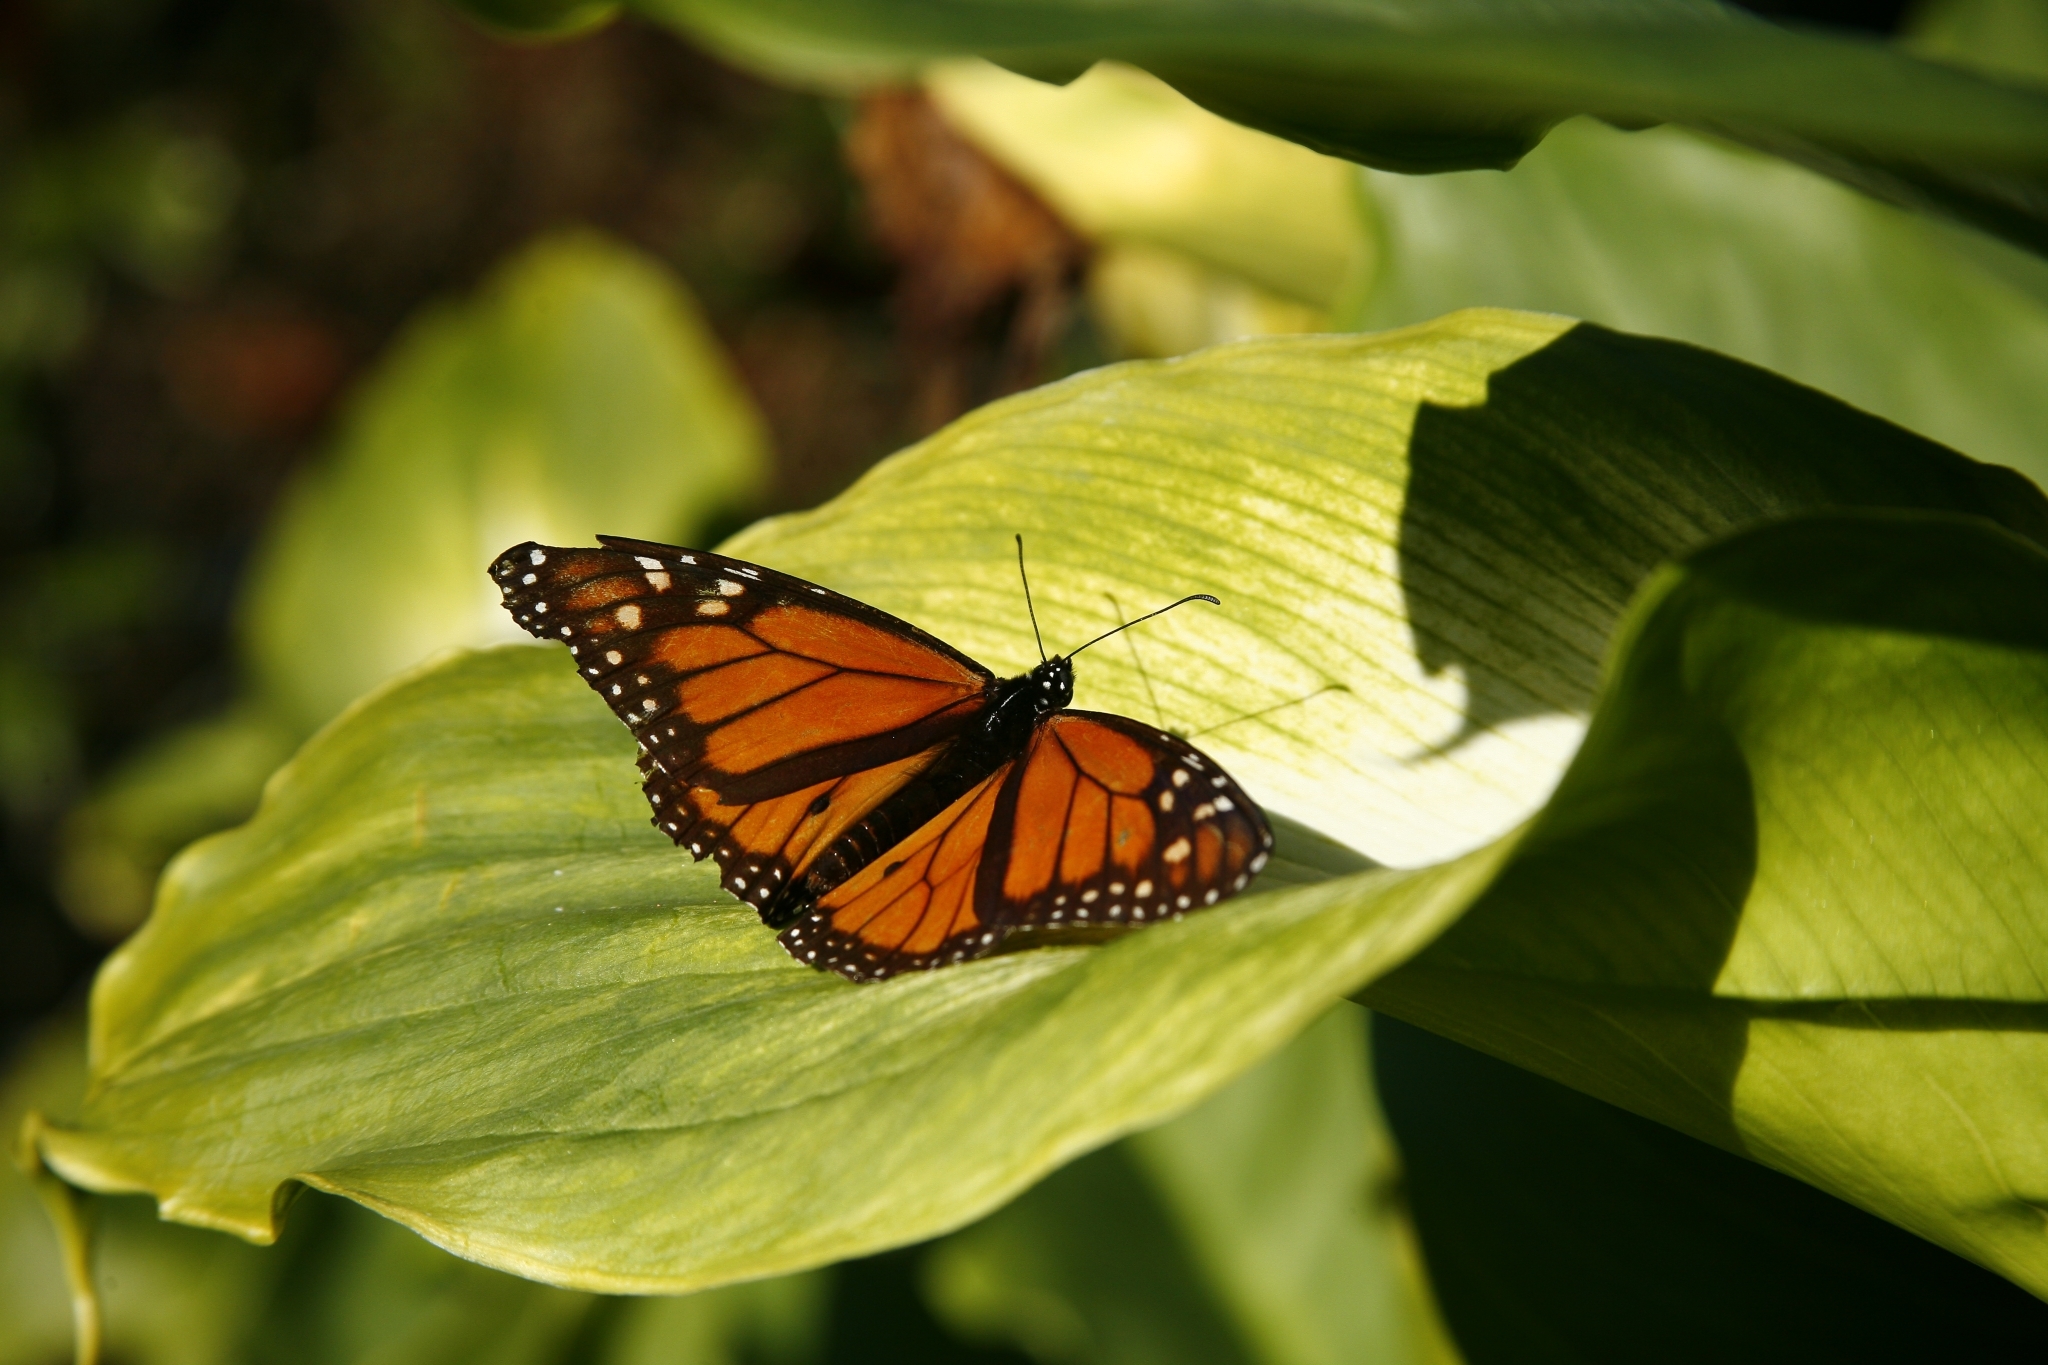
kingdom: Animalia
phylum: Arthropoda
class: Insecta
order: Lepidoptera
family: Nymphalidae
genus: Danaus
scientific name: Danaus plexippus
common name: Monarch
